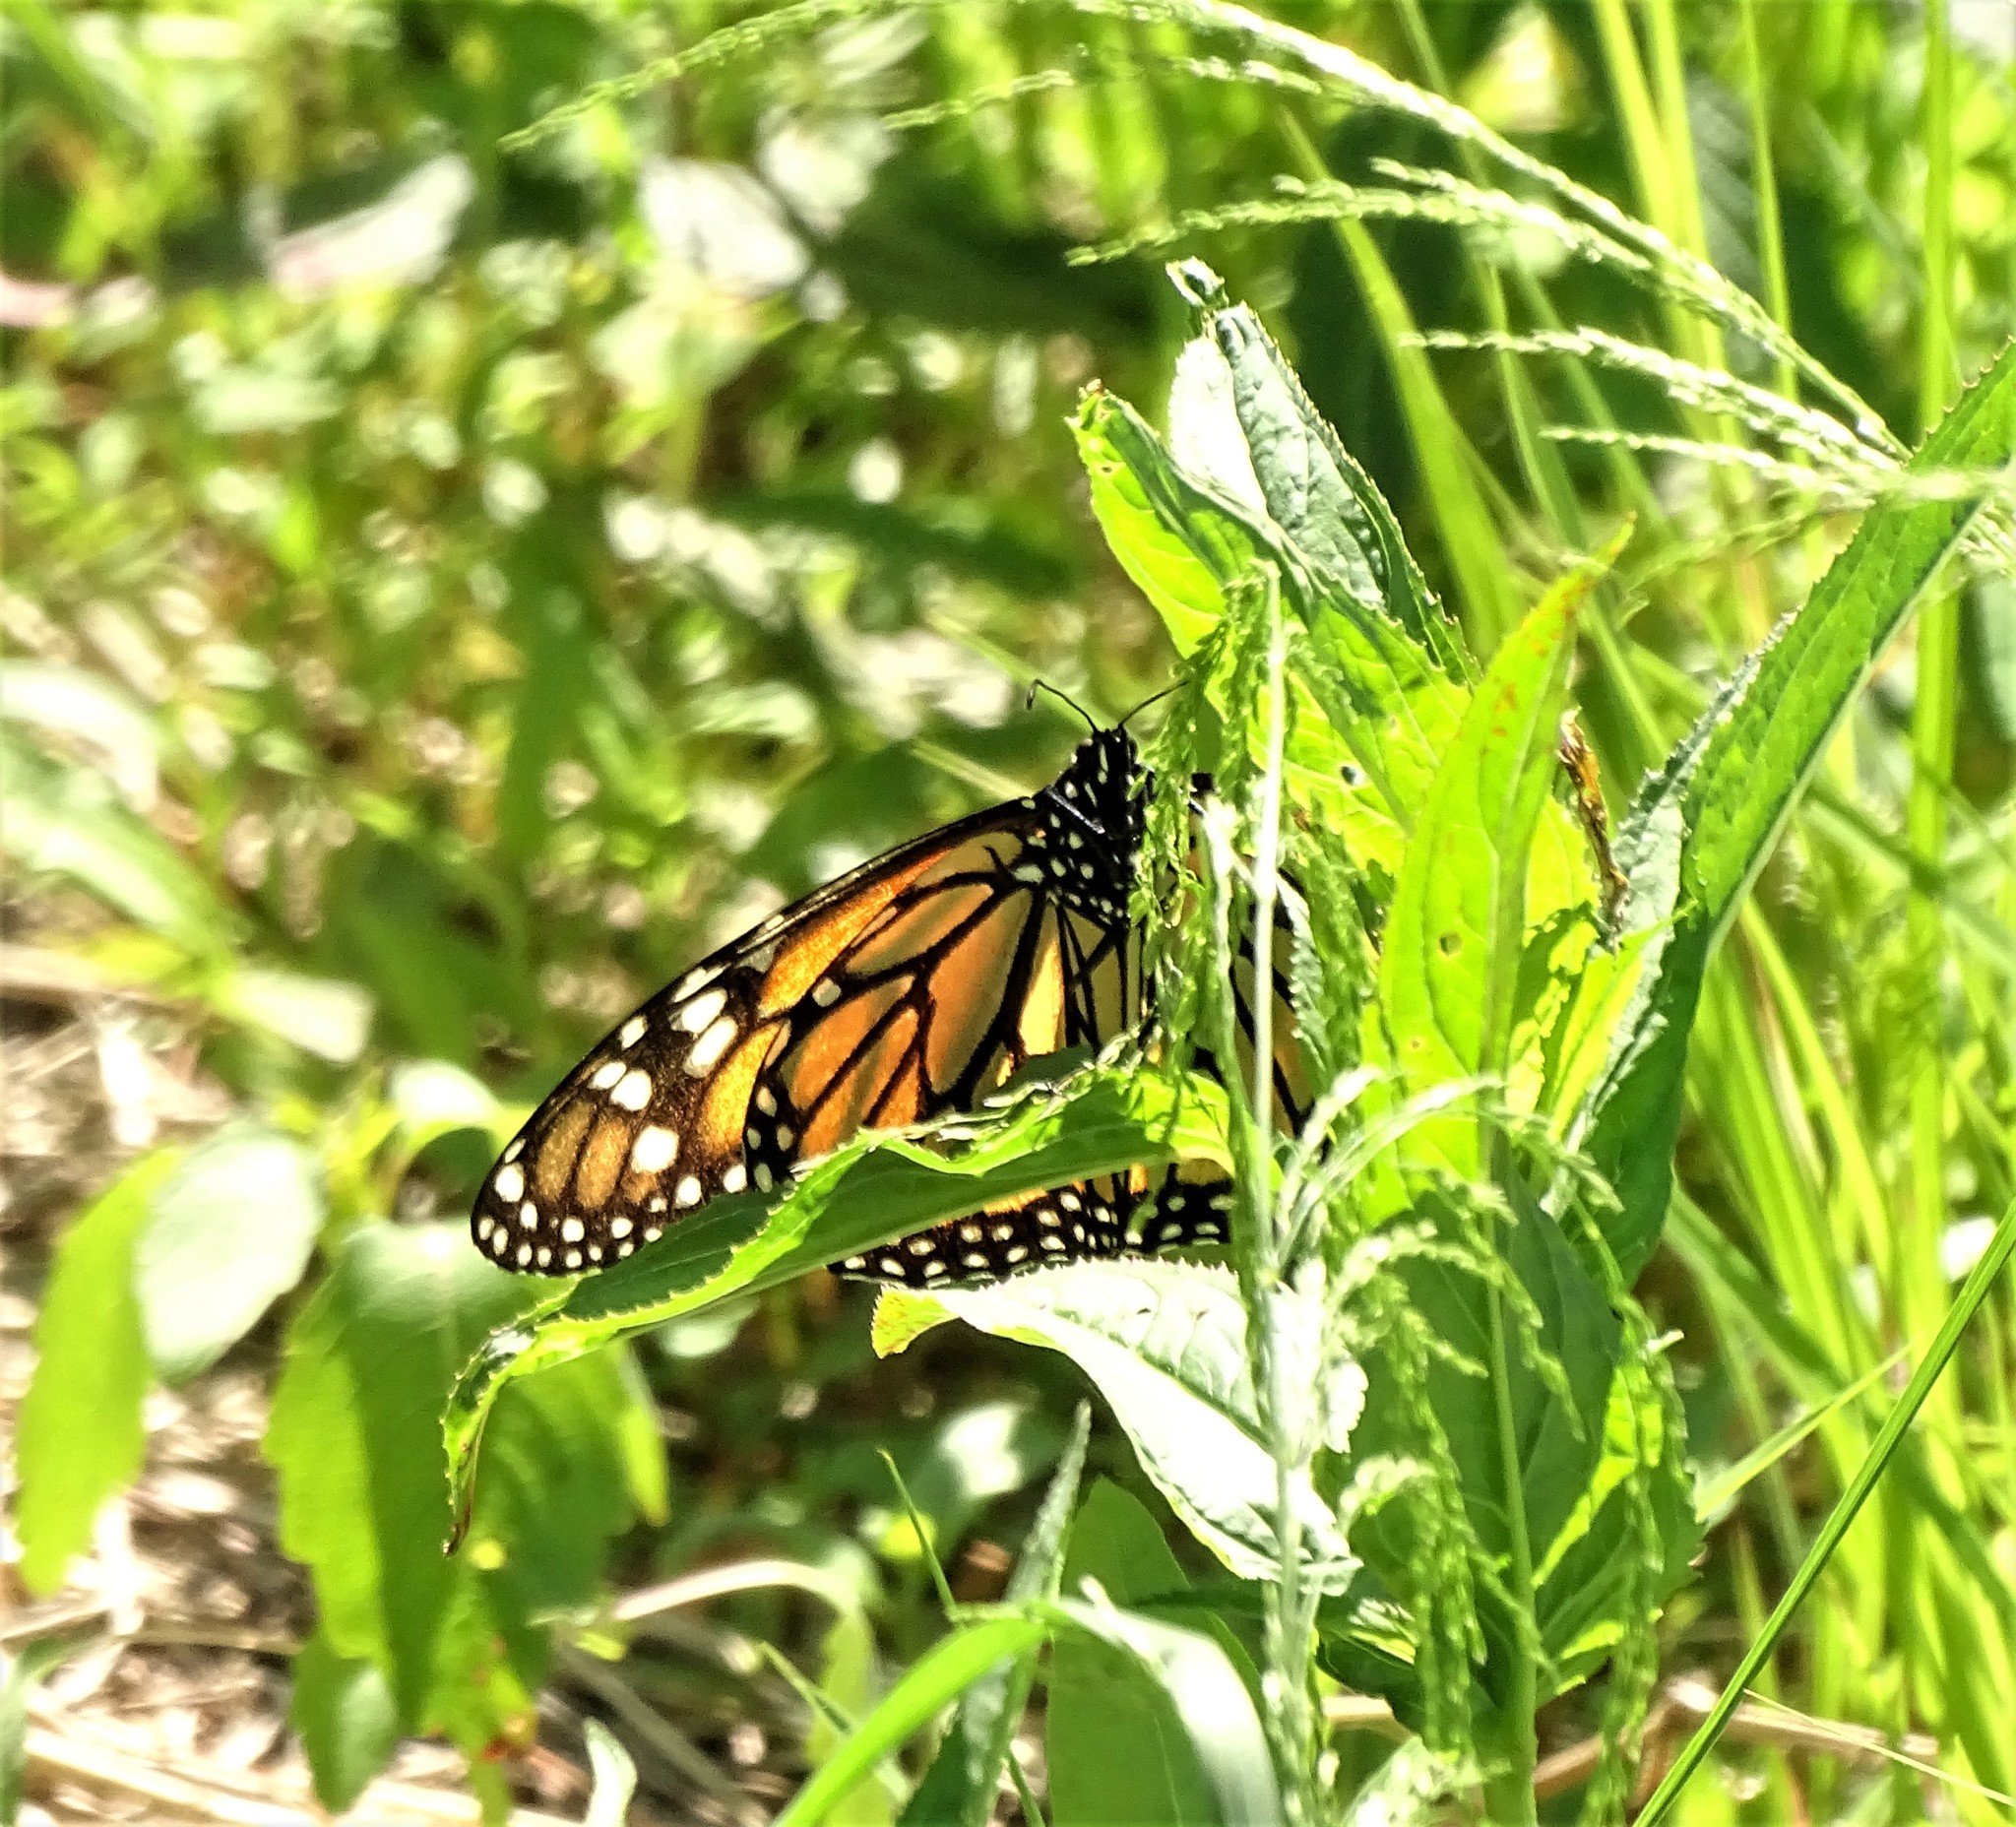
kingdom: Animalia
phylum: Arthropoda
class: Insecta
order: Lepidoptera
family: Nymphalidae
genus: Danaus
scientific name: Danaus plexippus
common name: Monarch
